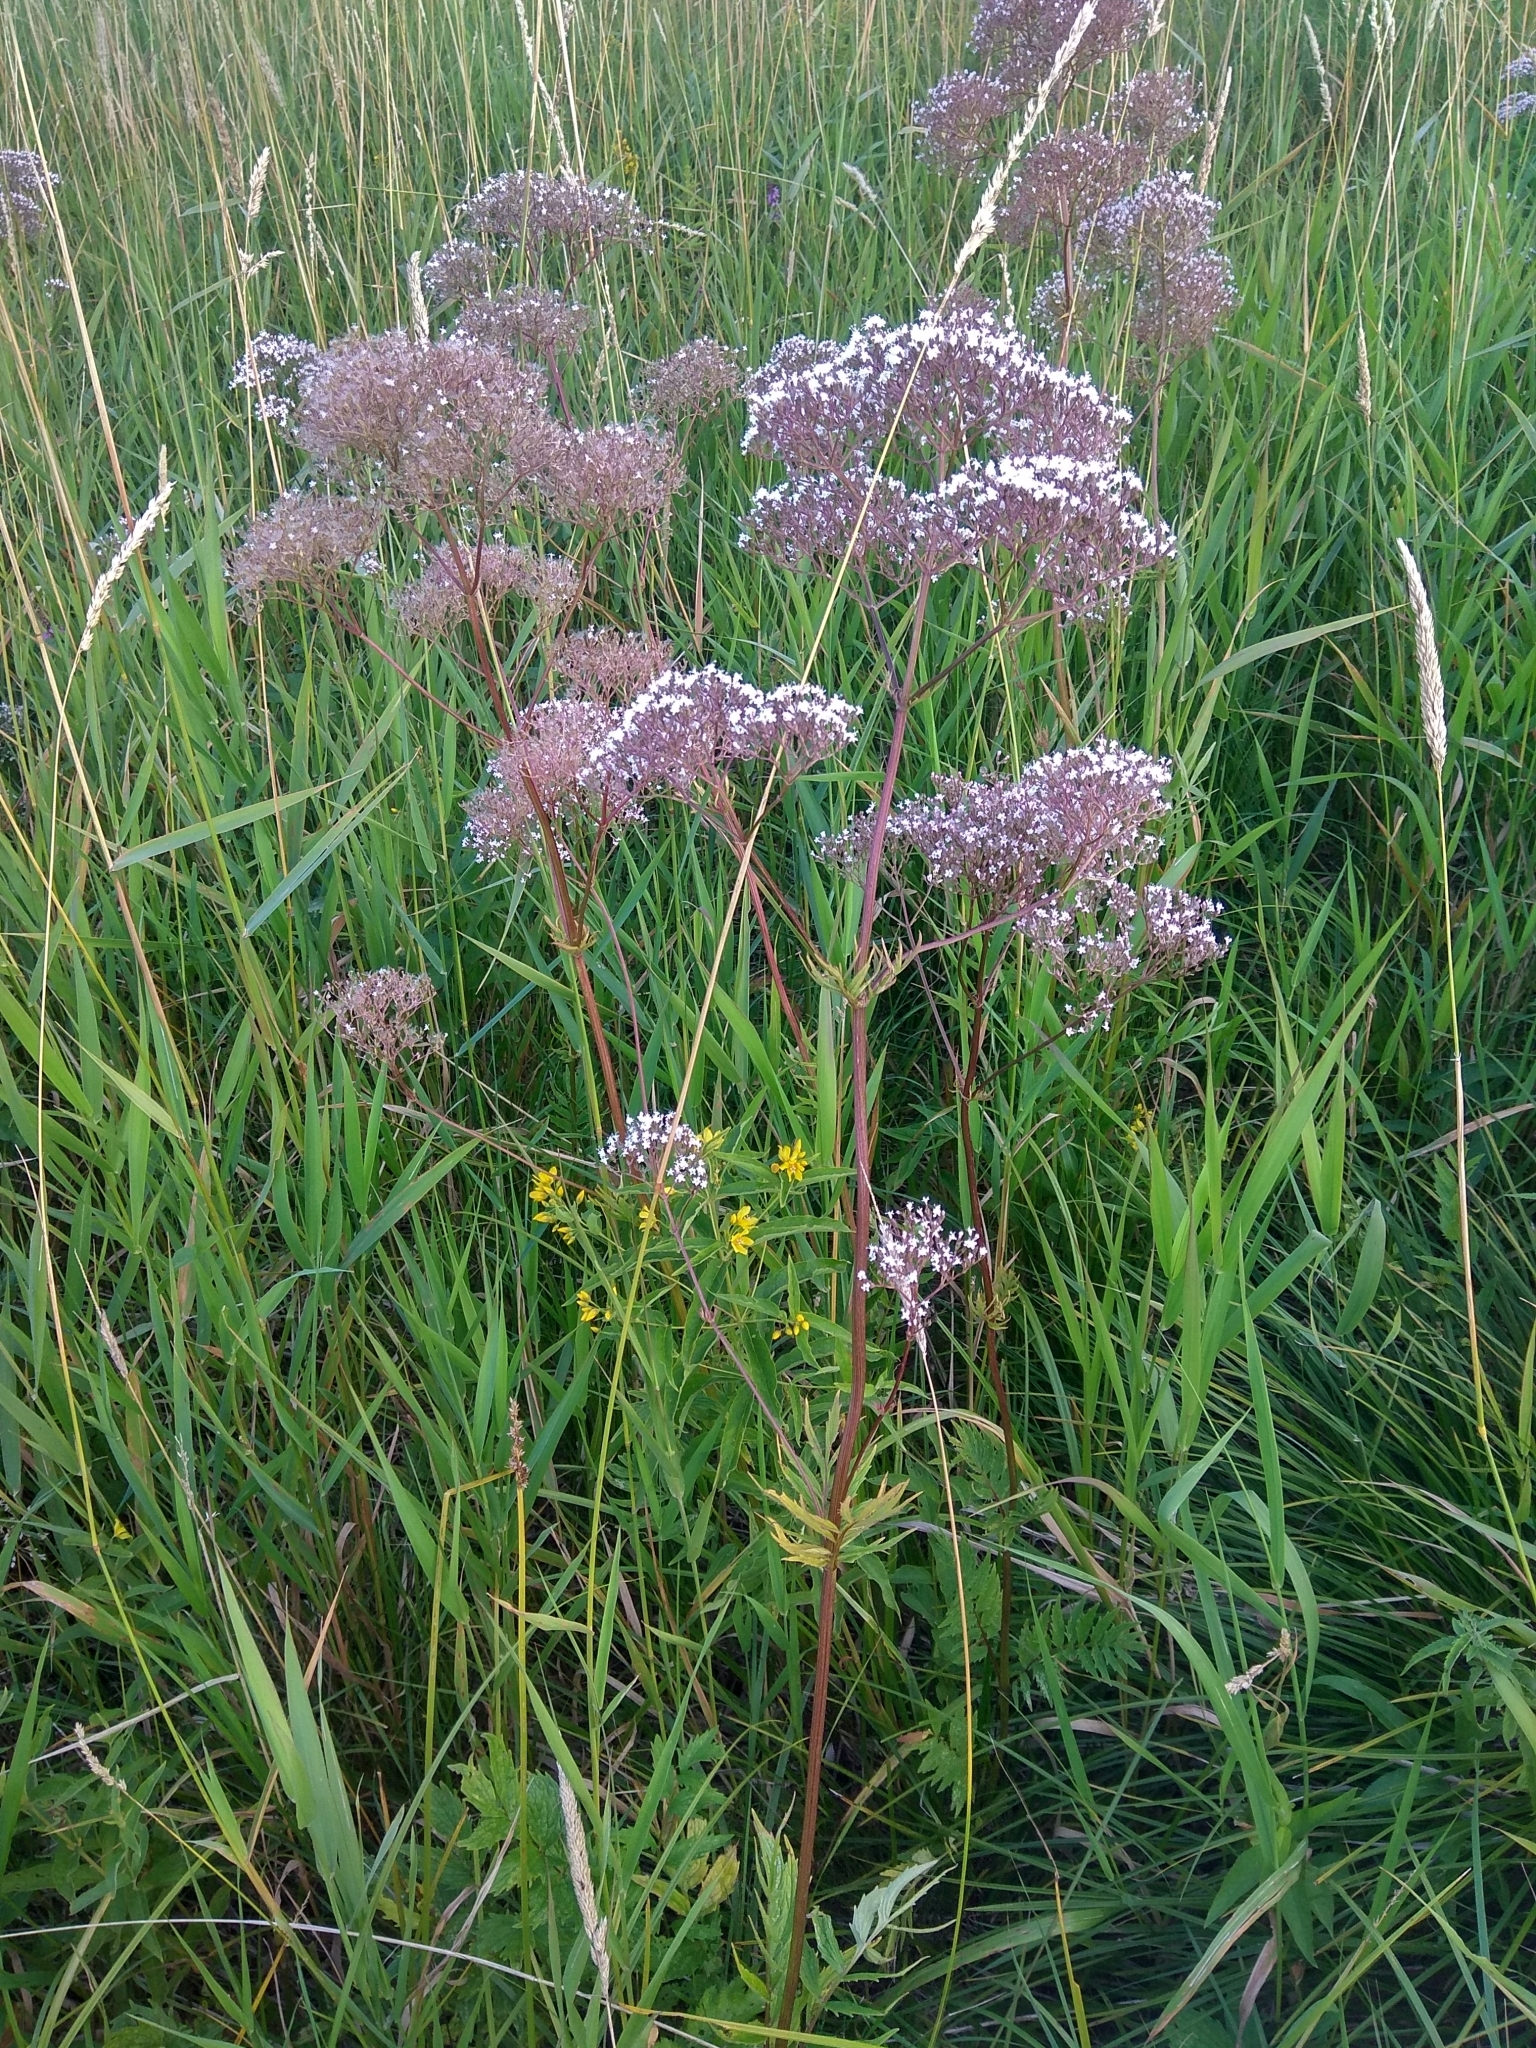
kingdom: Plantae
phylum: Tracheophyta
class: Magnoliopsida
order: Dipsacales
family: Caprifoliaceae
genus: Valeriana
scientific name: Valeriana officinalis
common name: Common valerian
